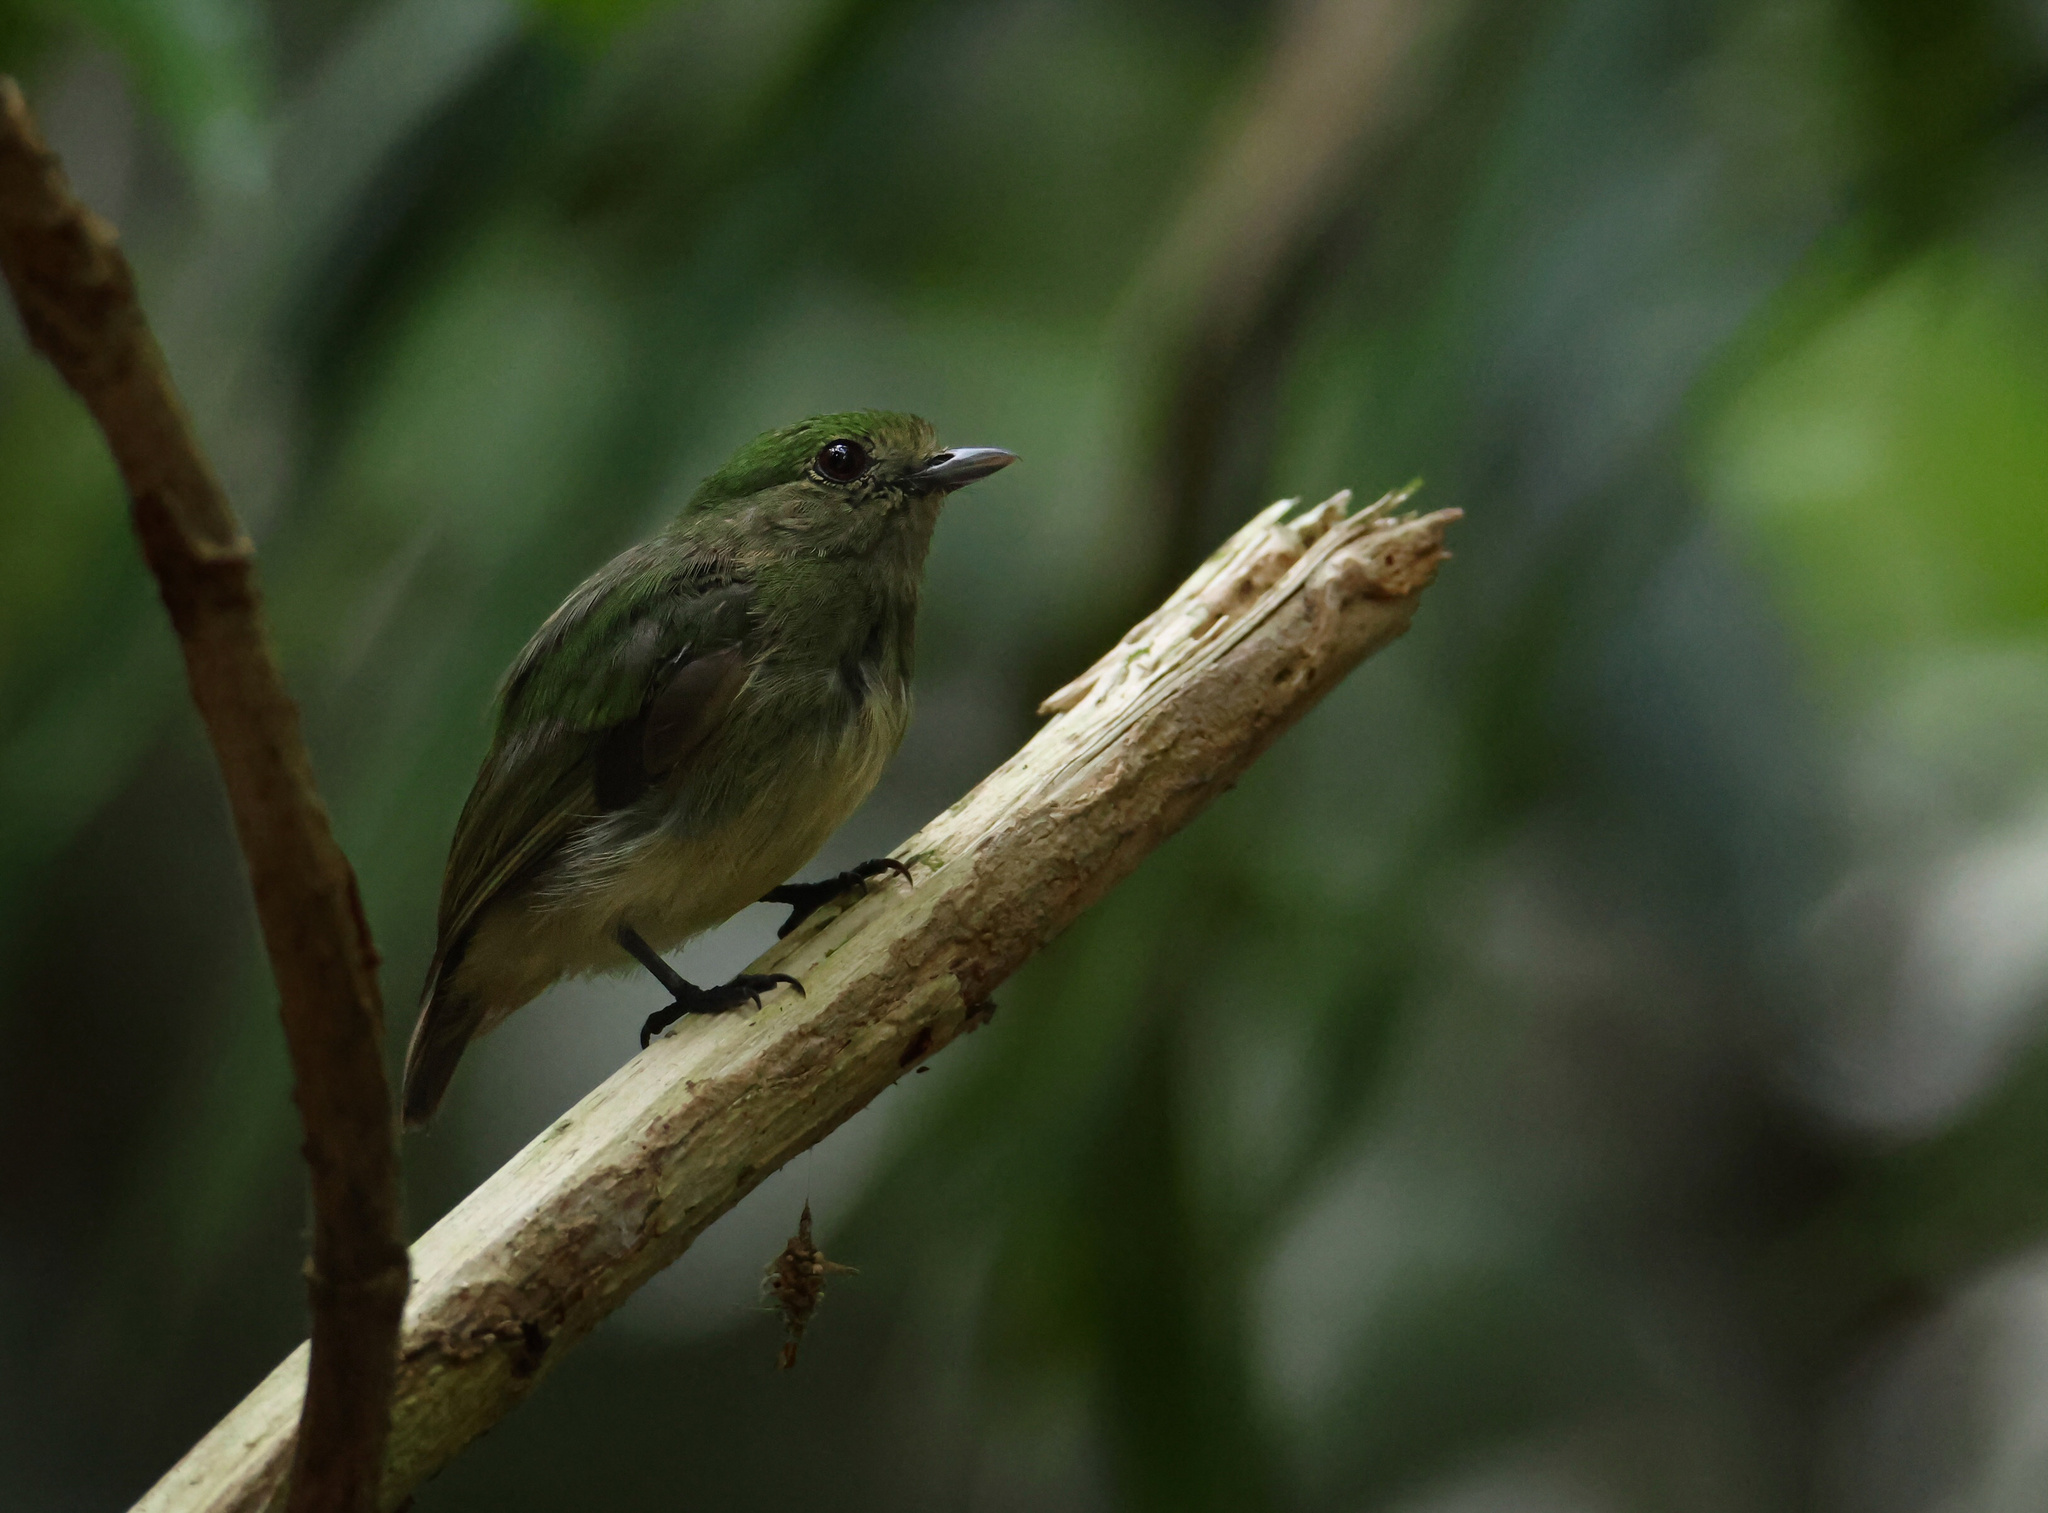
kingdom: Animalia
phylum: Chordata
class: Aves
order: Passeriformes
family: Pipridae
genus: Lepidothrix
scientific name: Lepidothrix coronata
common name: Blue-crowned manakin
